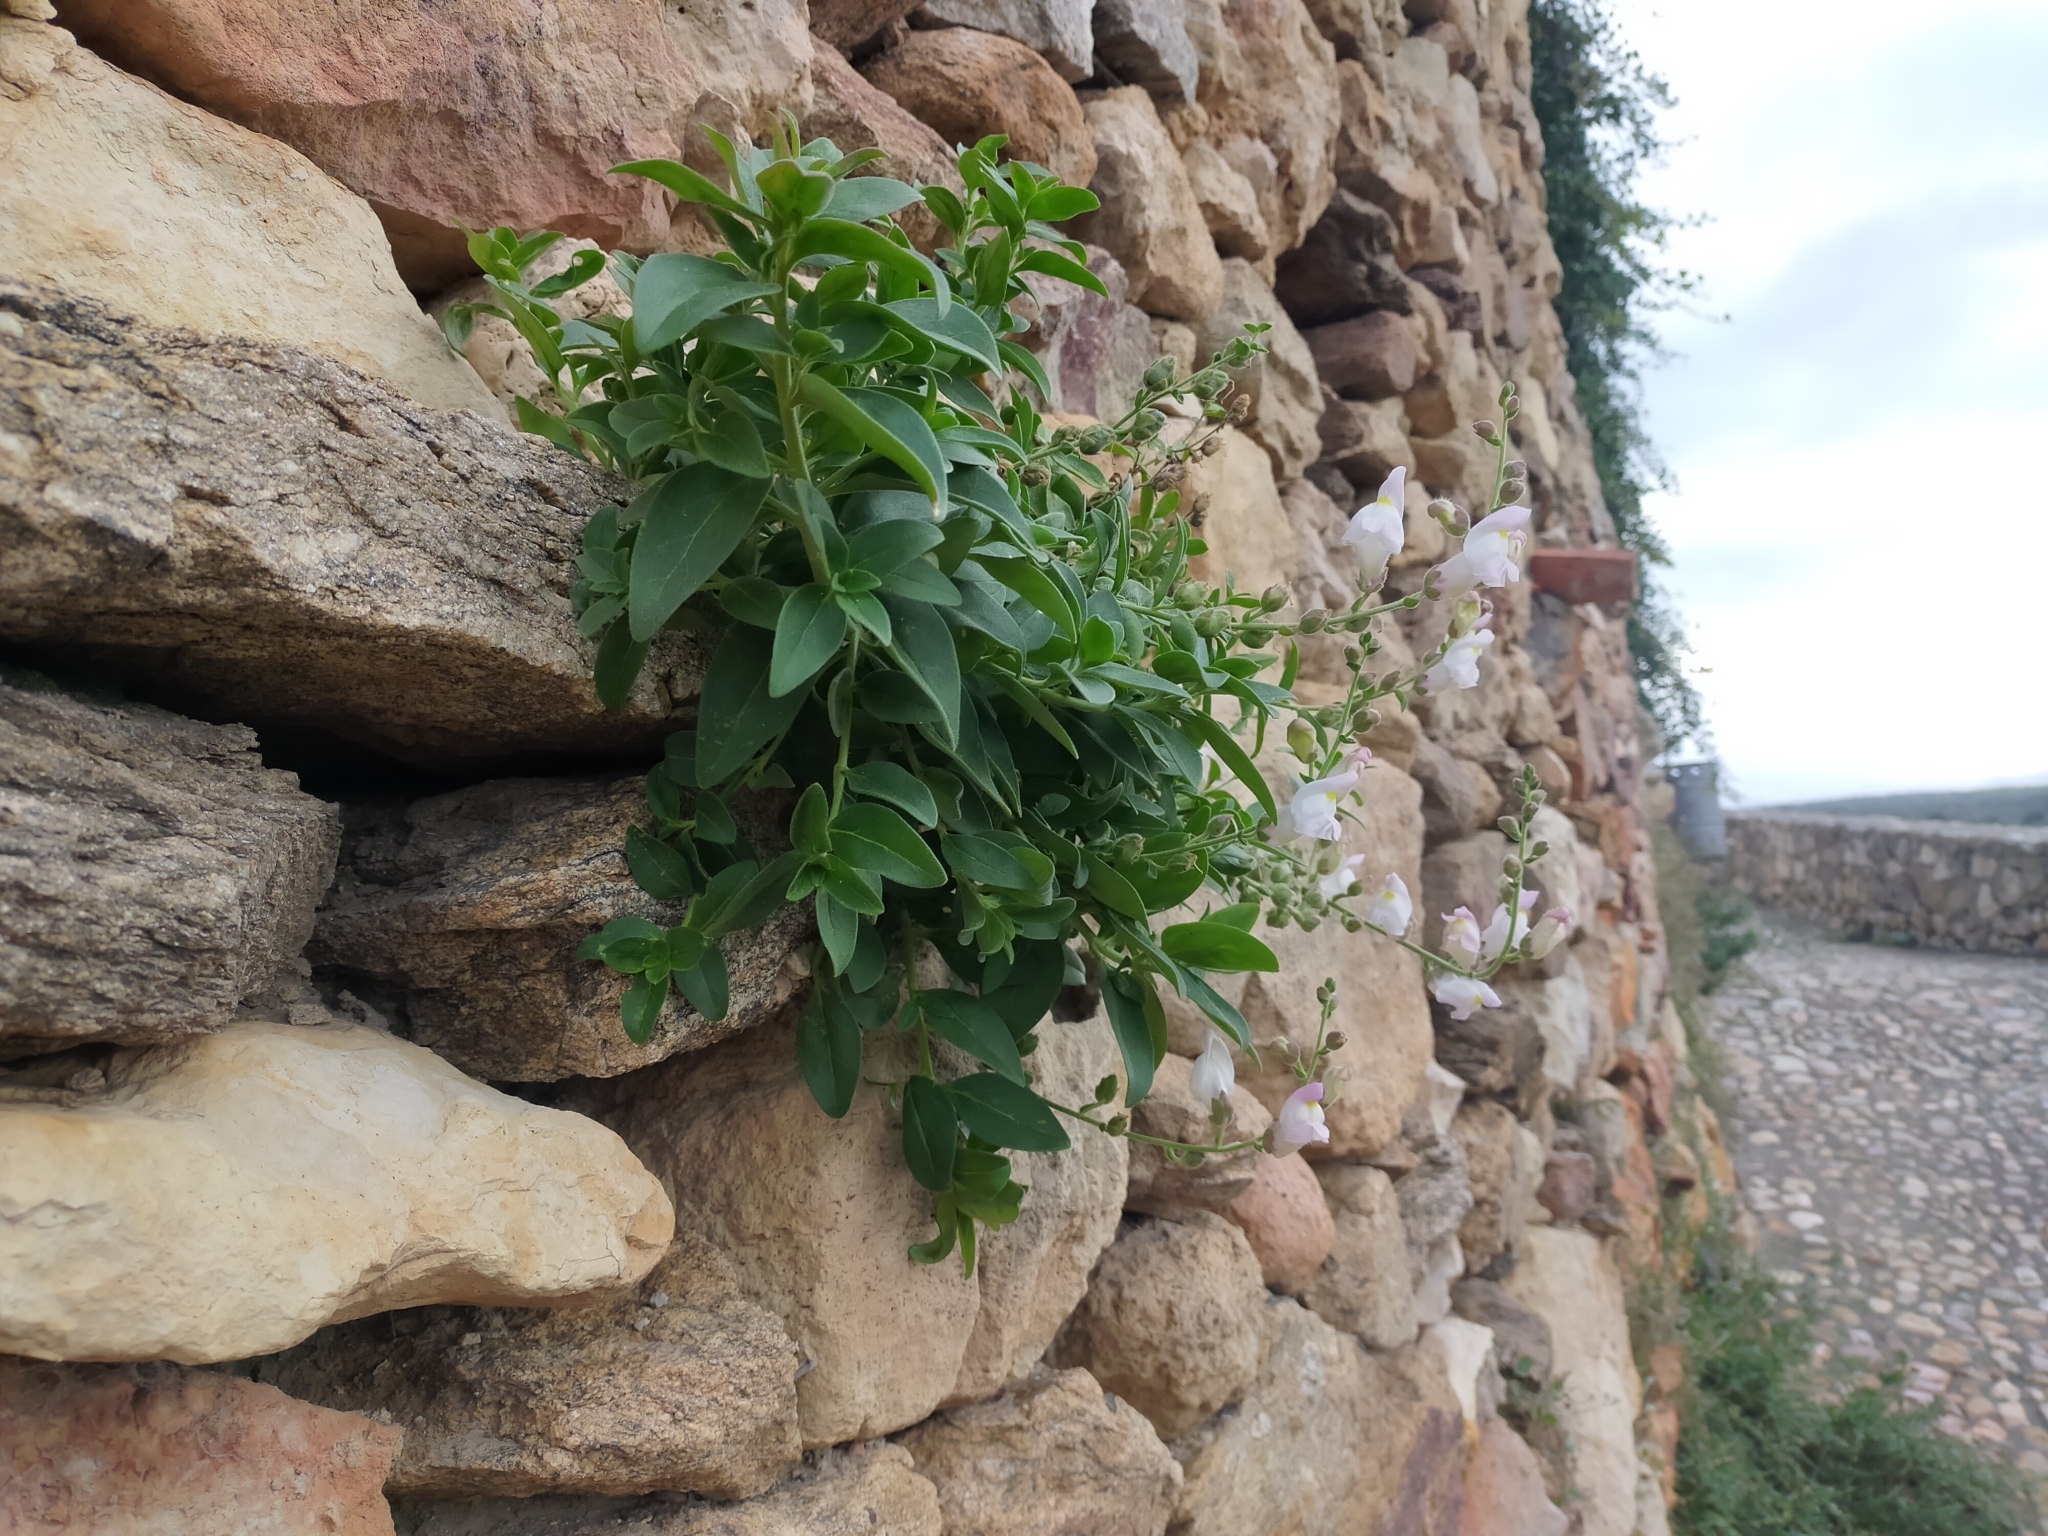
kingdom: Plantae
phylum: Tracheophyta
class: Magnoliopsida
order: Lamiales
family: Plantaginaceae
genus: Antirrhinum
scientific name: Antirrhinum graniticum
